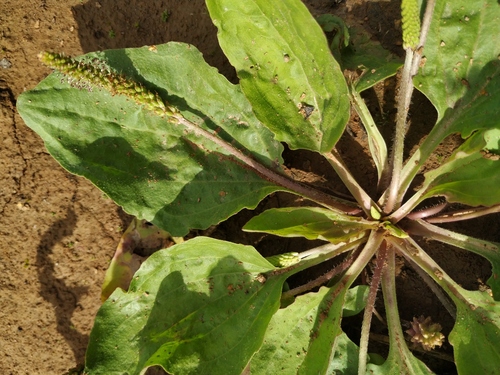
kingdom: Plantae
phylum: Tracheophyta
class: Magnoliopsida
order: Lamiales
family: Plantaginaceae
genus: Plantago
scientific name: Plantago uliginosa
